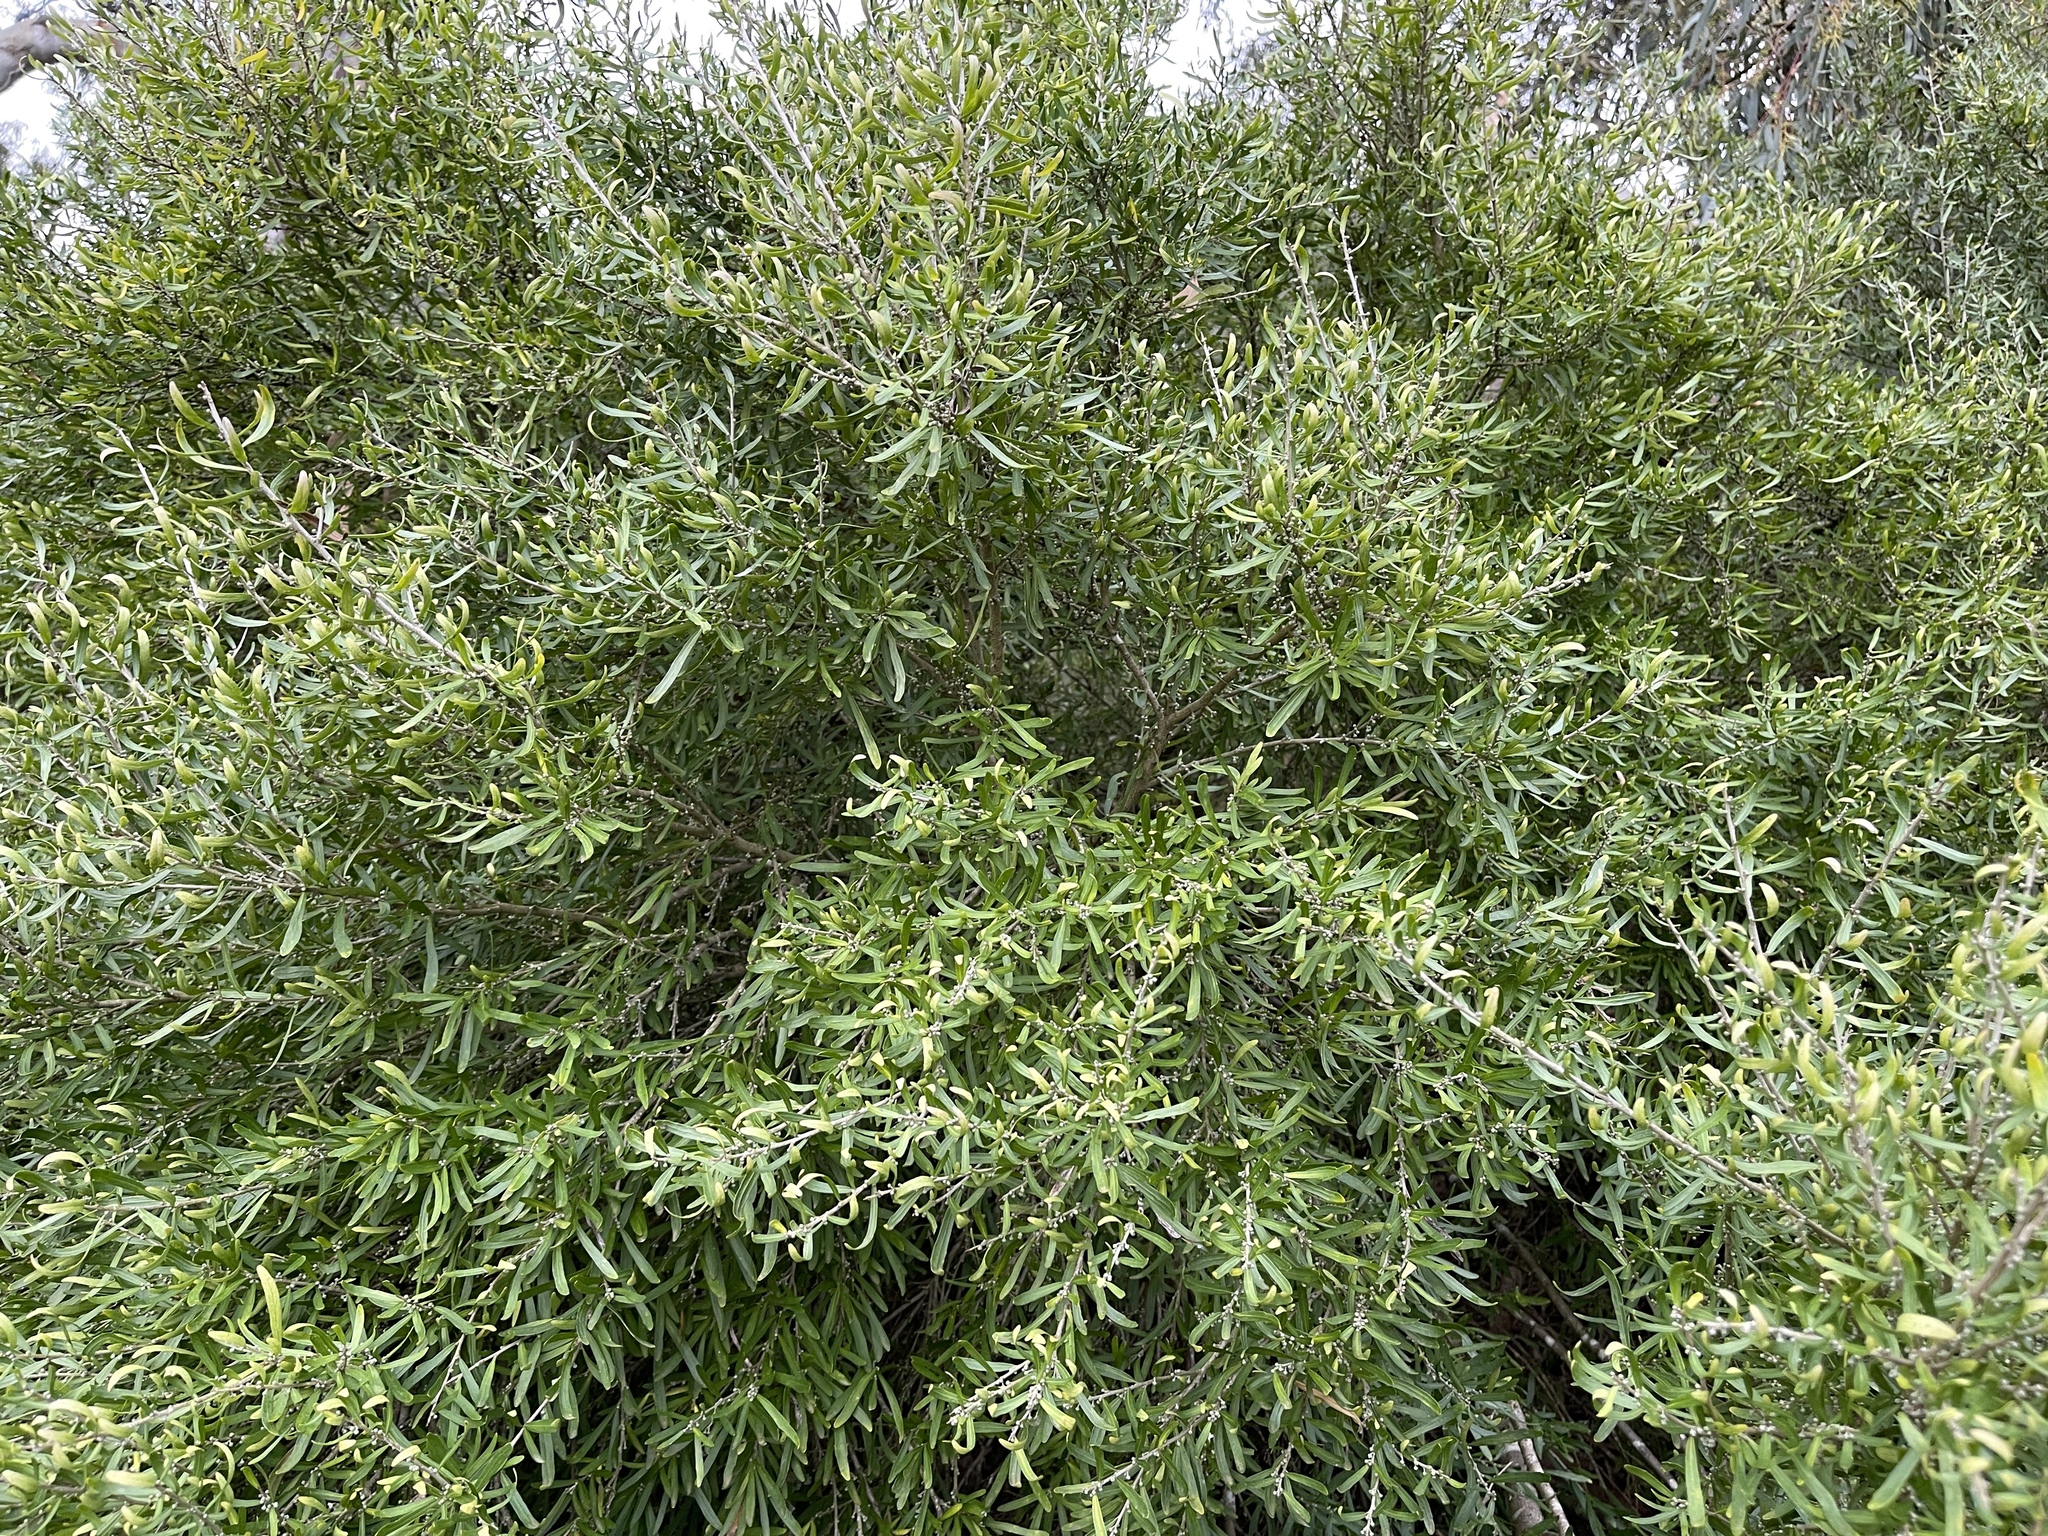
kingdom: Plantae
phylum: Tracheophyta
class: Magnoliopsida
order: Malpighiales
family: Violaceae
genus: Melicytus
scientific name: Melicytus dentatus
